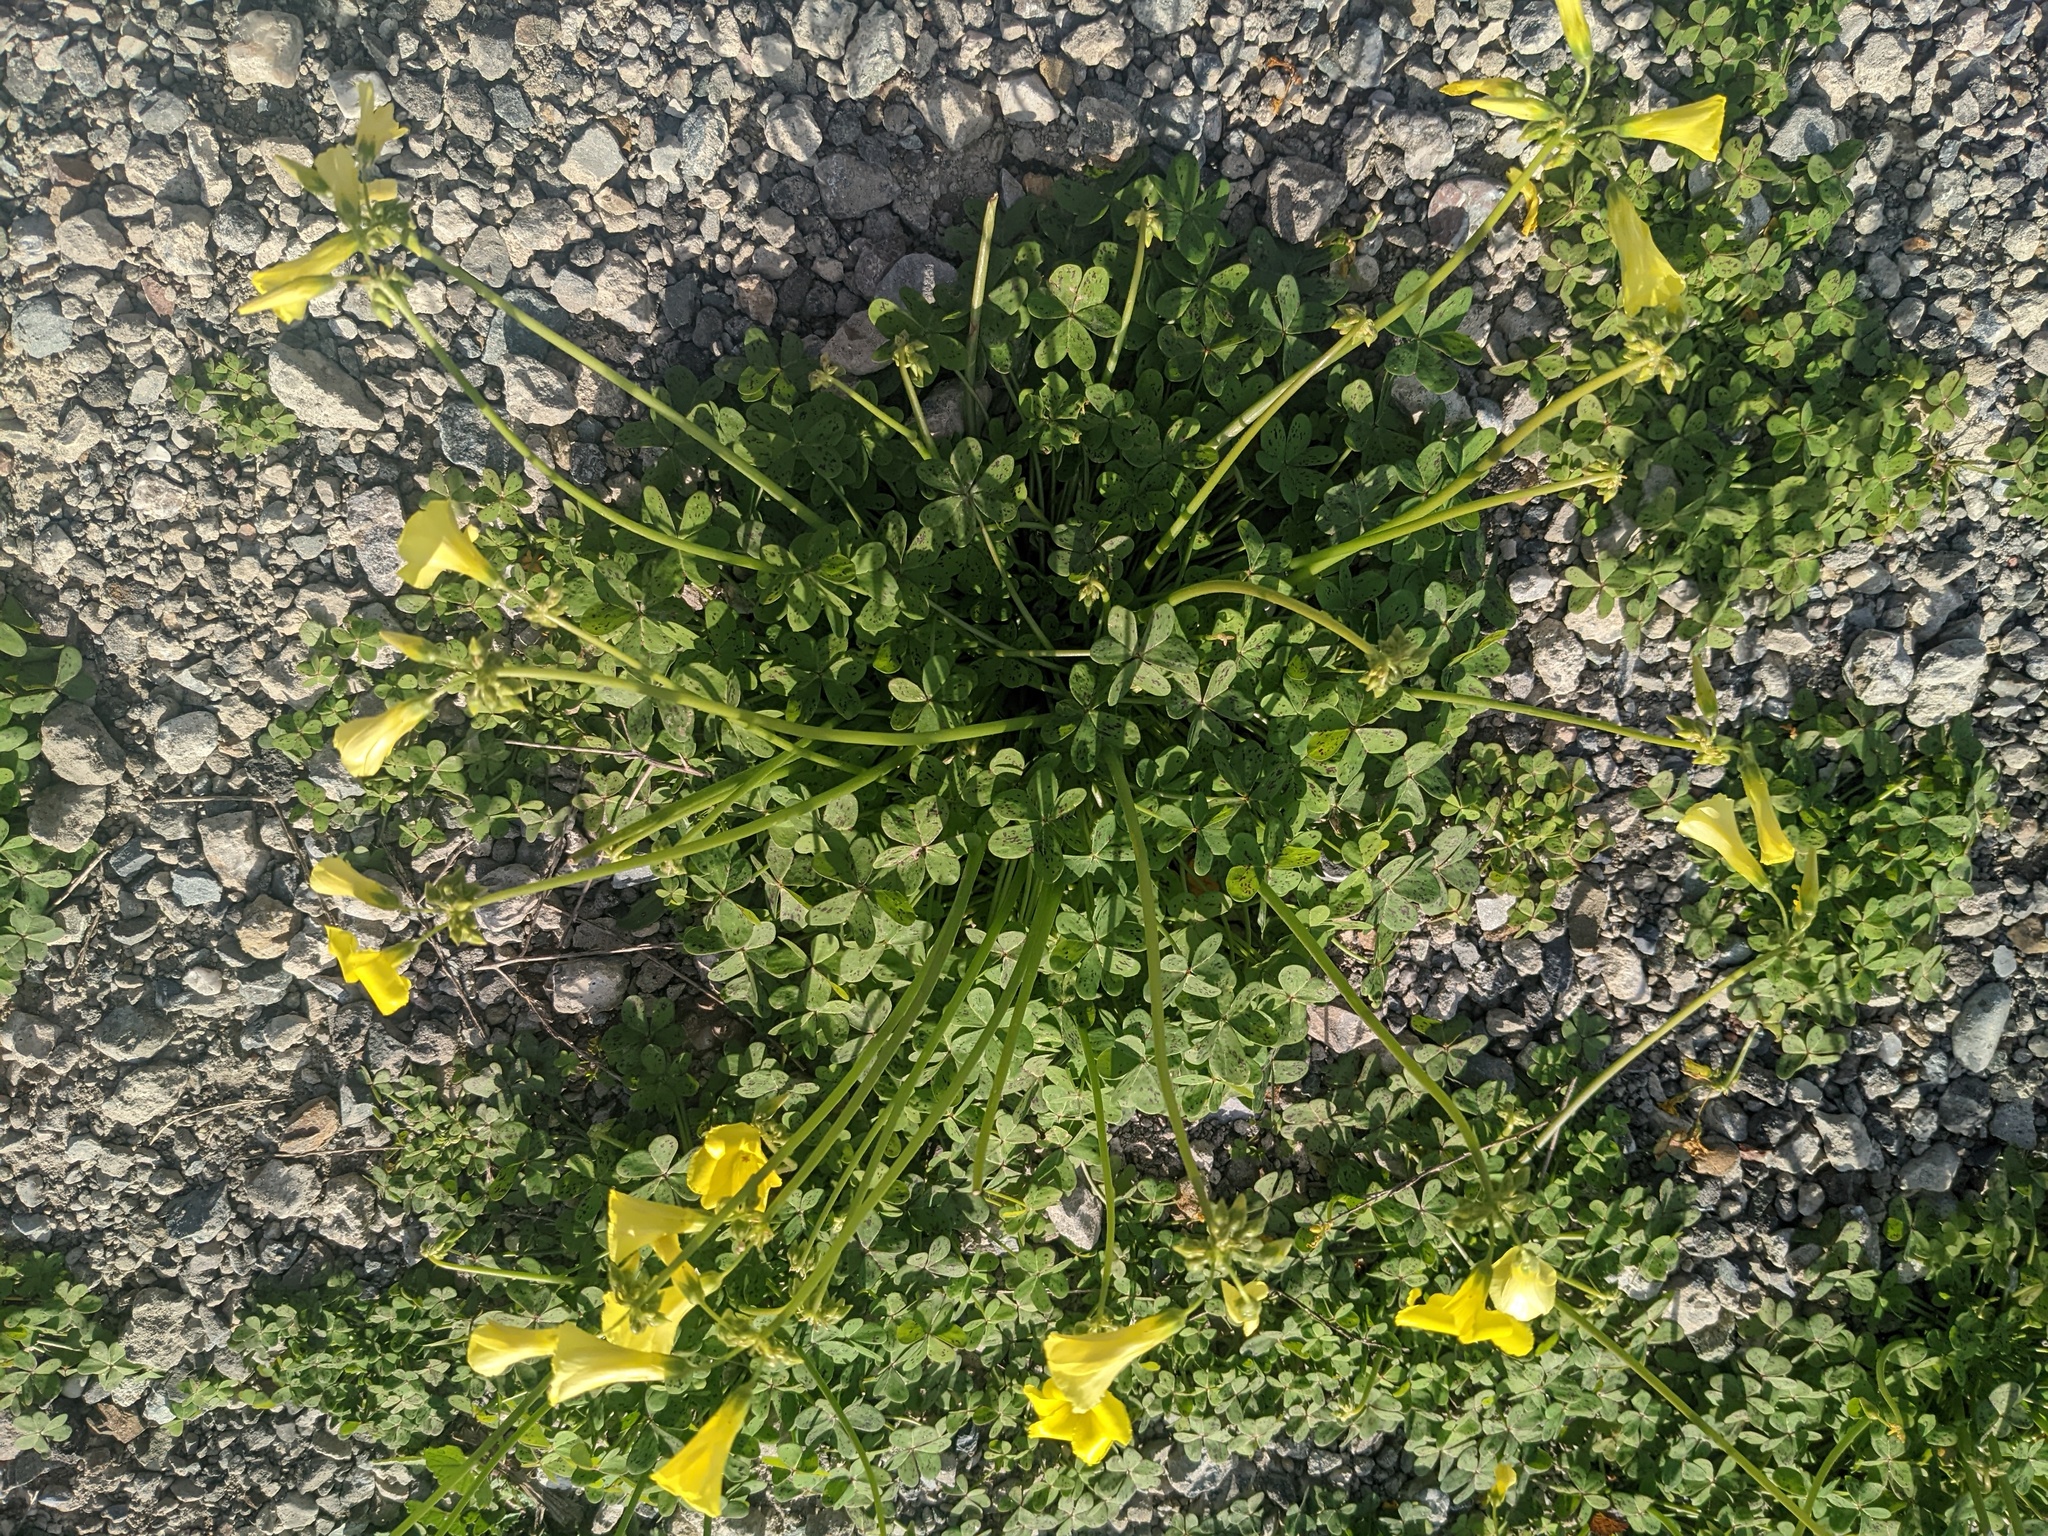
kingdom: Plantae
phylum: Tracheophyta
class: Magnoliopsida
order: Oxalidales
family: Oxalidaceae
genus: Oxalis
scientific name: Oxalis pes-caprae
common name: Bermuda-buttercup
